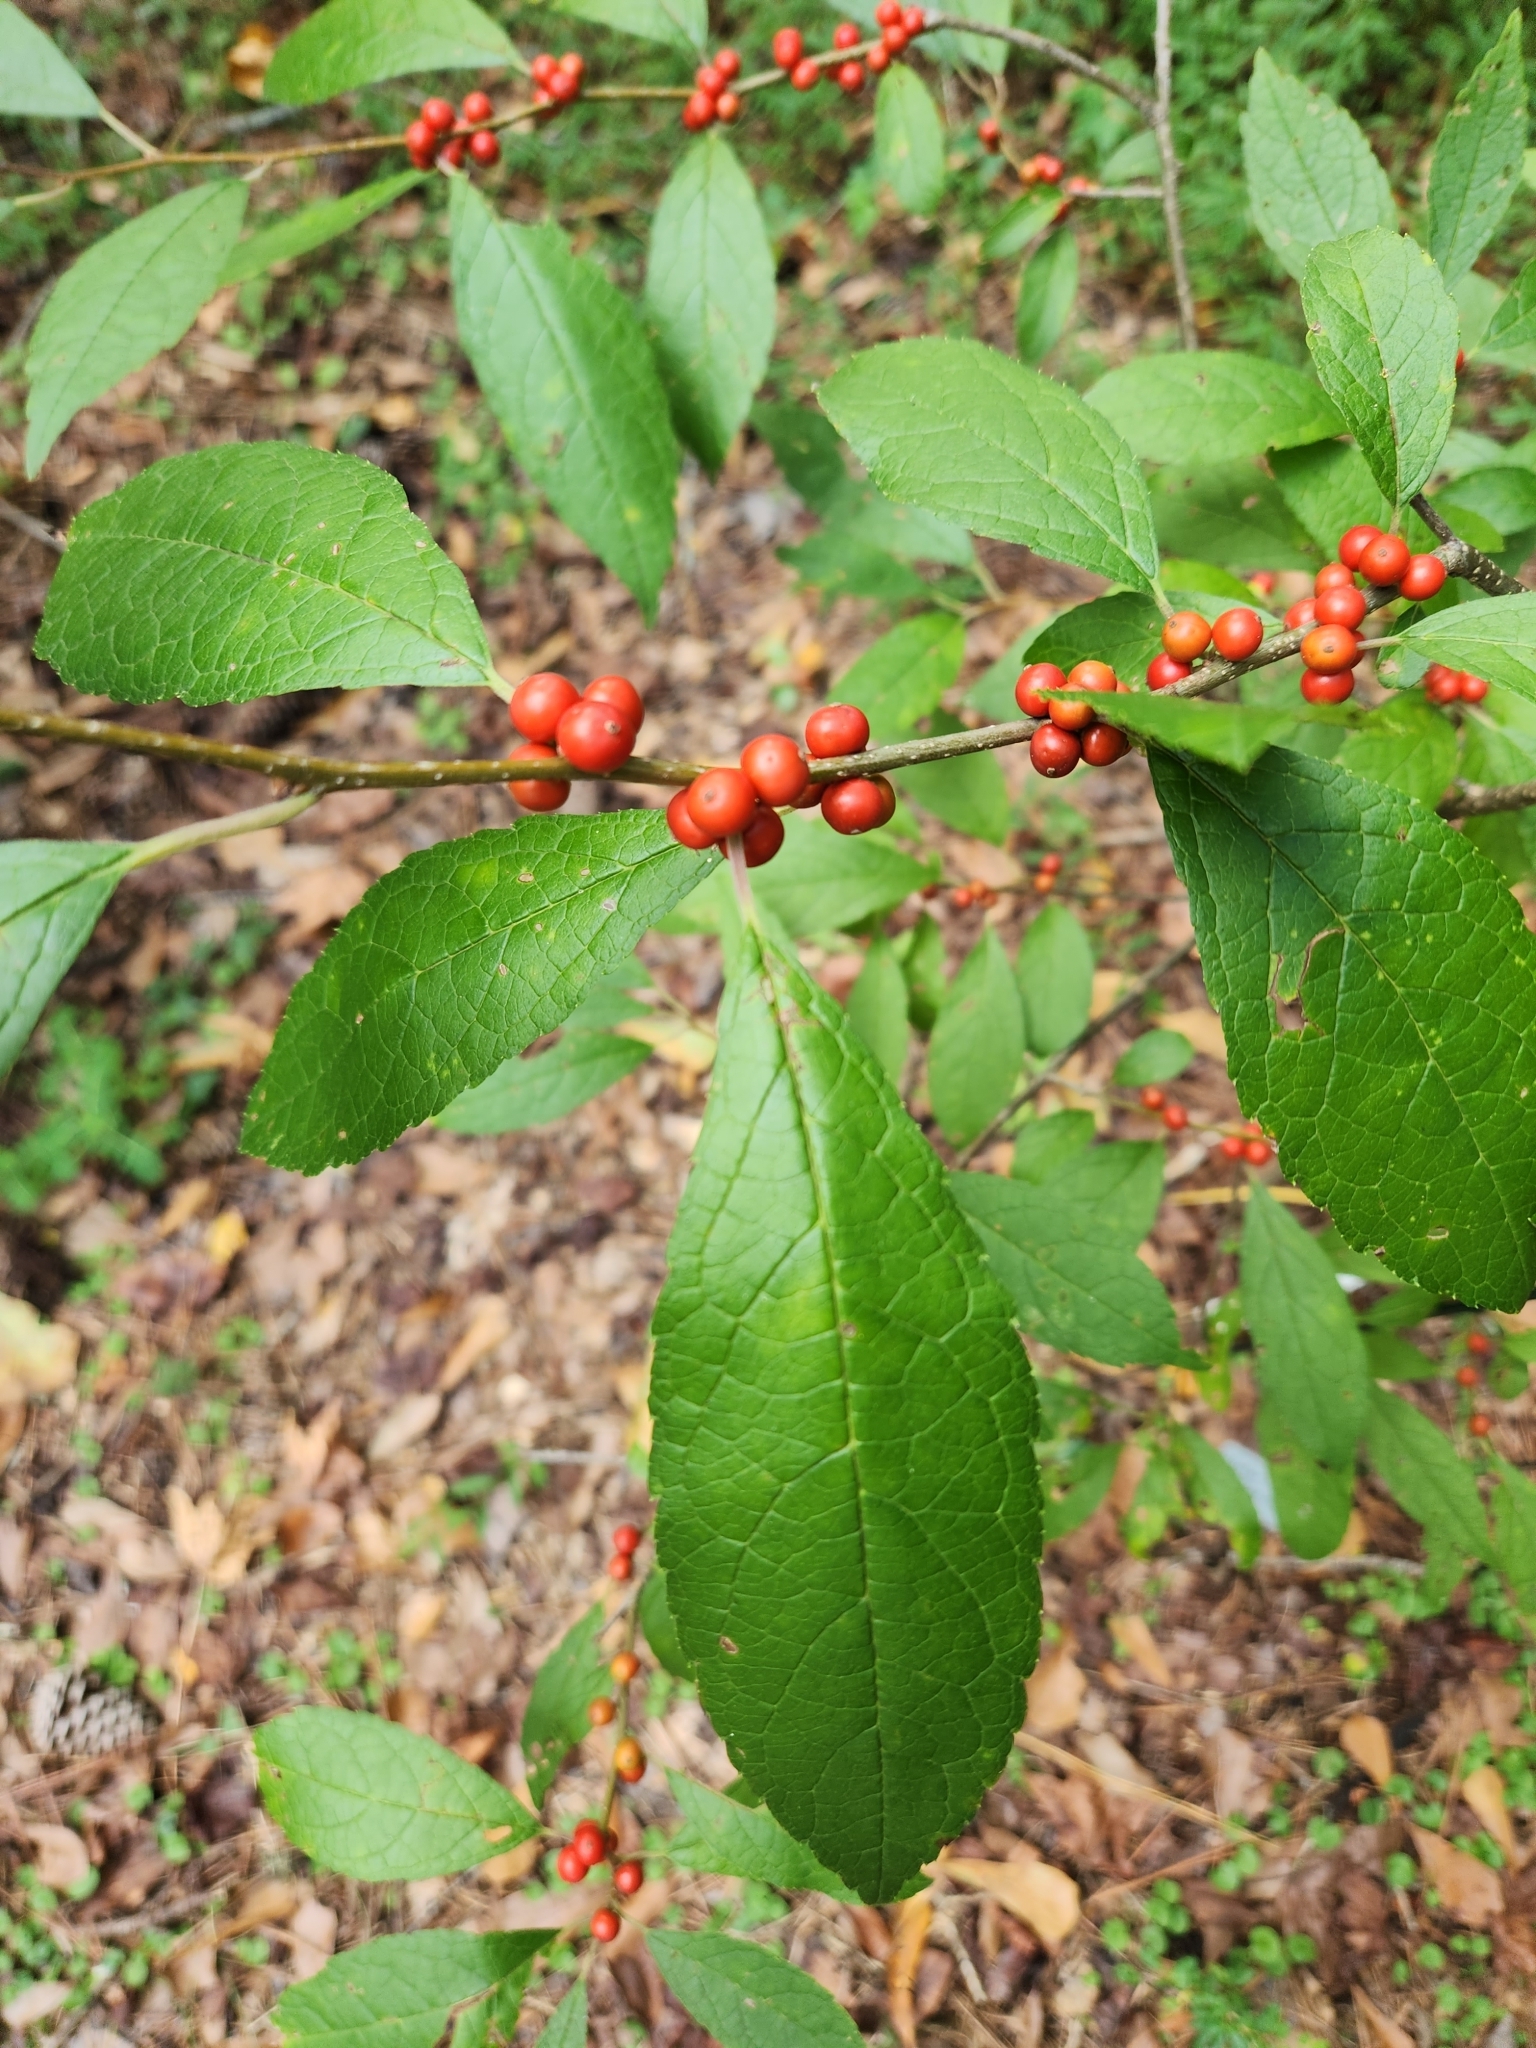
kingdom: Plantae
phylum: Tracheophyta
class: Magnoliopsida
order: Aquifoliales
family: Aquifoliaceae
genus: Ilex
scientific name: Ilex verticillata
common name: Virginia winterberry
